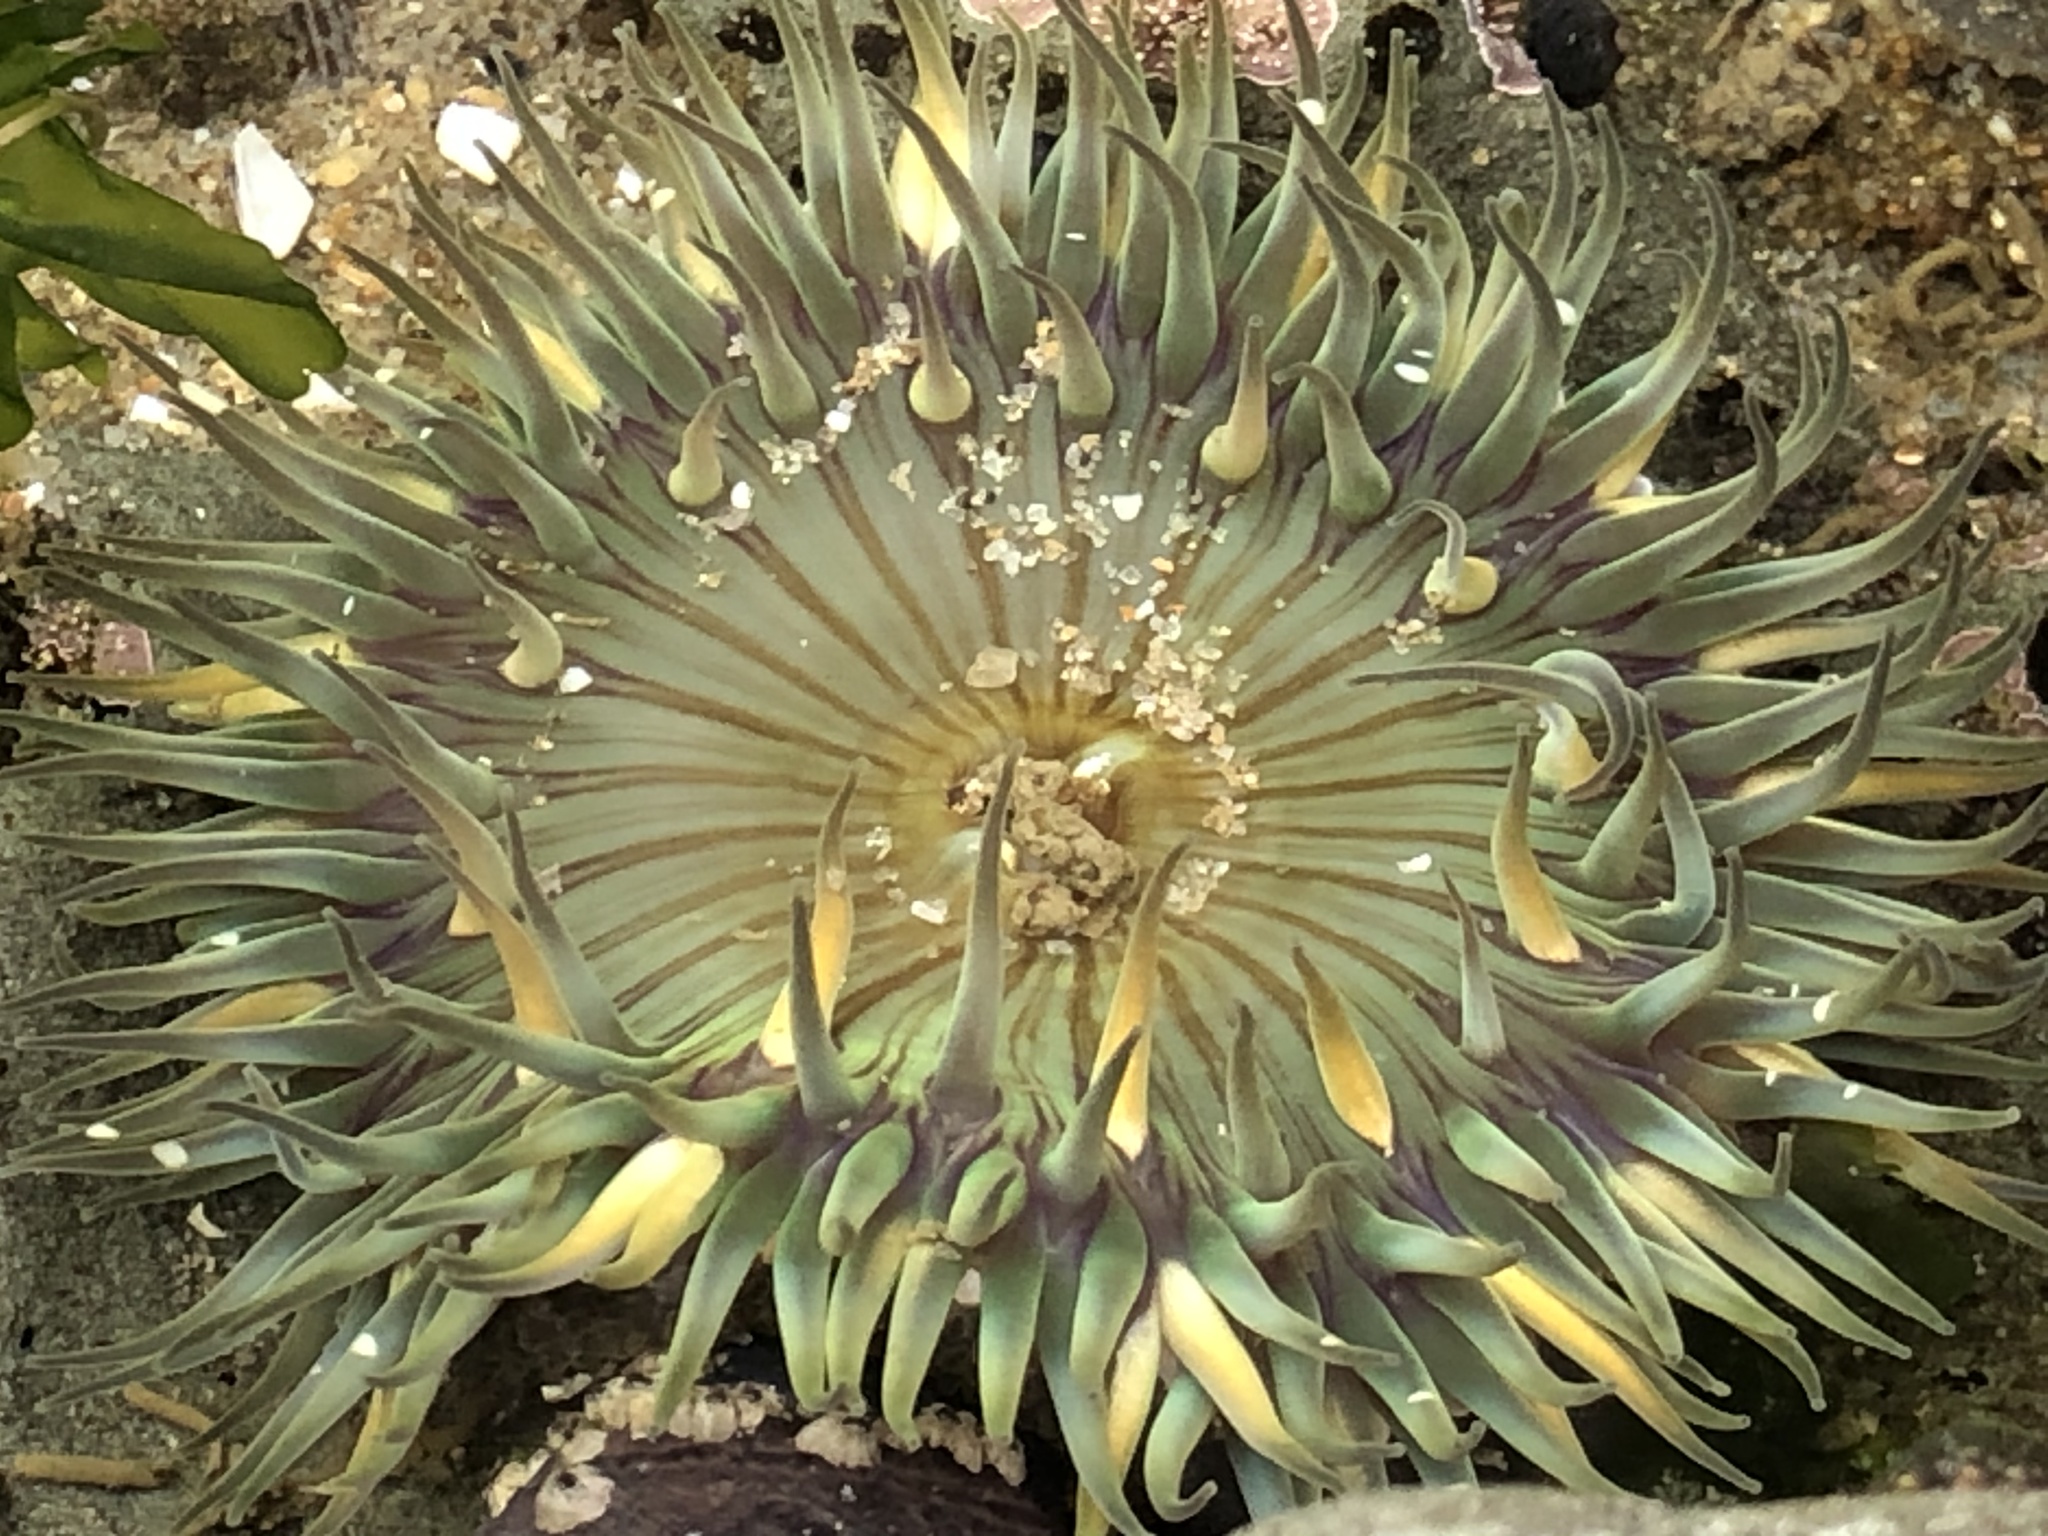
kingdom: Animalia
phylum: Cnidaria
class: Anthozoa
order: Actiniaria
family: Actiniidae
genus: Anthopleura
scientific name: Anthopleura sola
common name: Sun anemone
